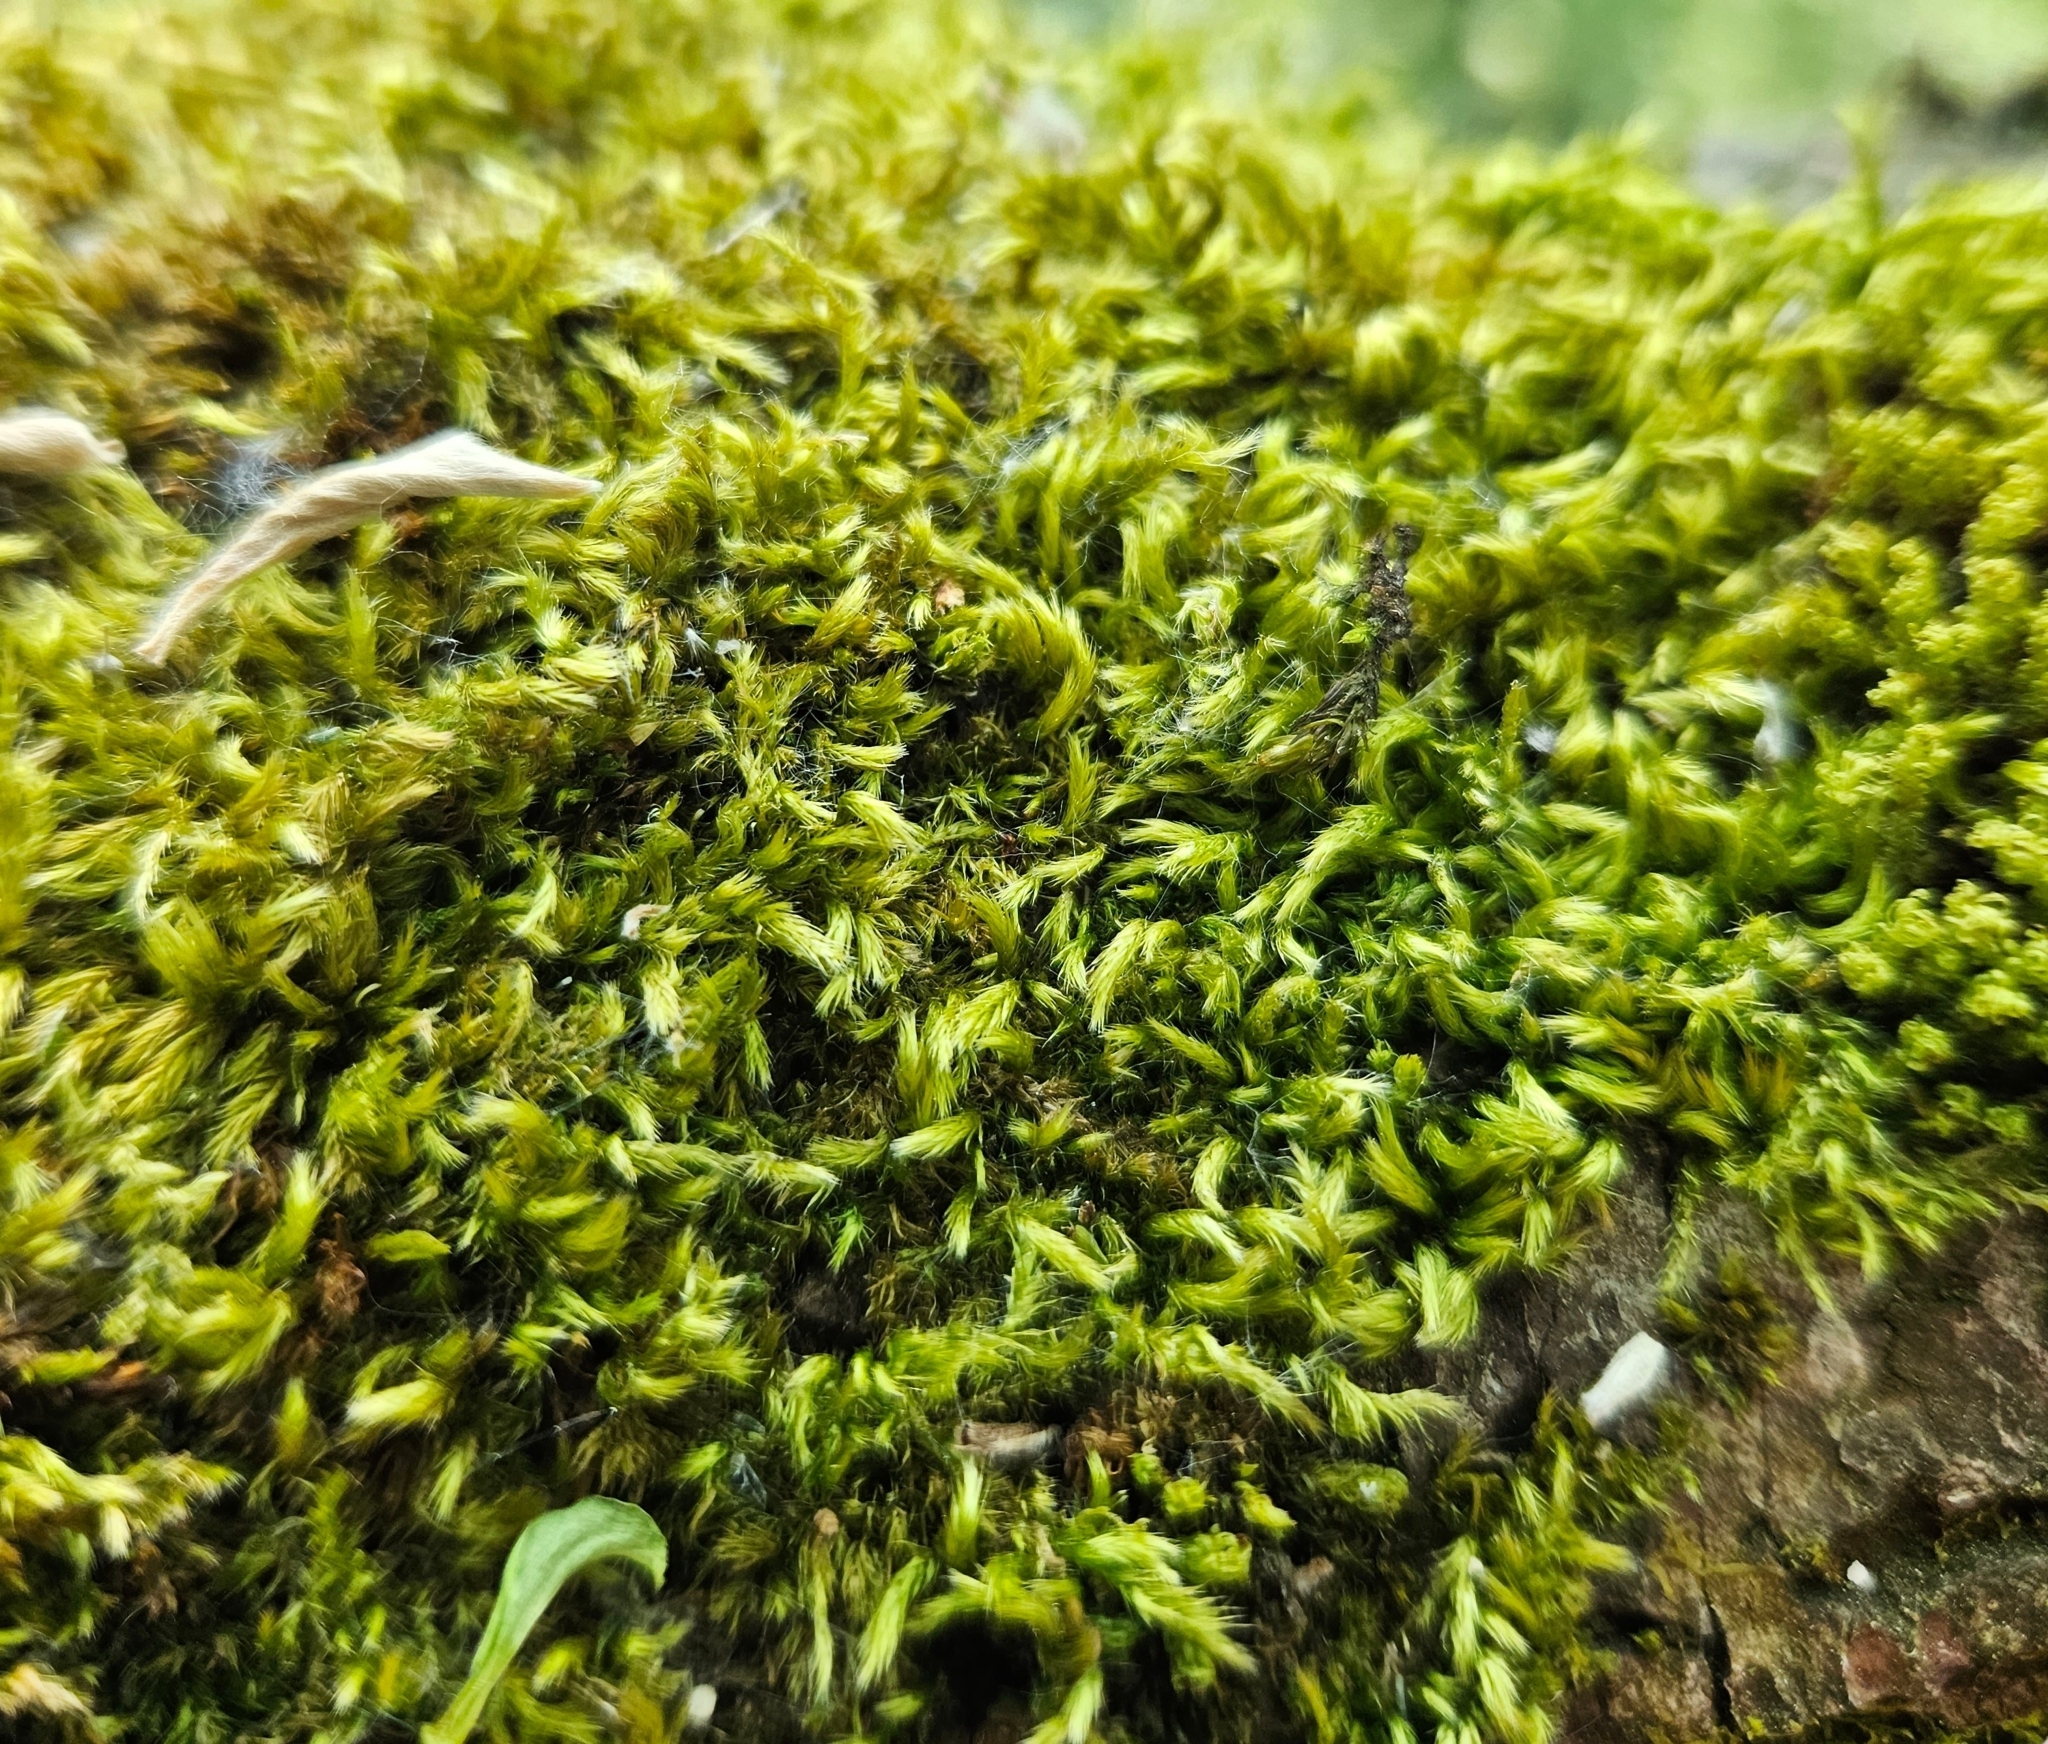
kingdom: Plantae
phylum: Bryophyta
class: Bryopsida
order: Hypnales
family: Brachytheciaceae
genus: Homalothecium
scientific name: Homalothecium sericeum
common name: Silky wall feather-moss
